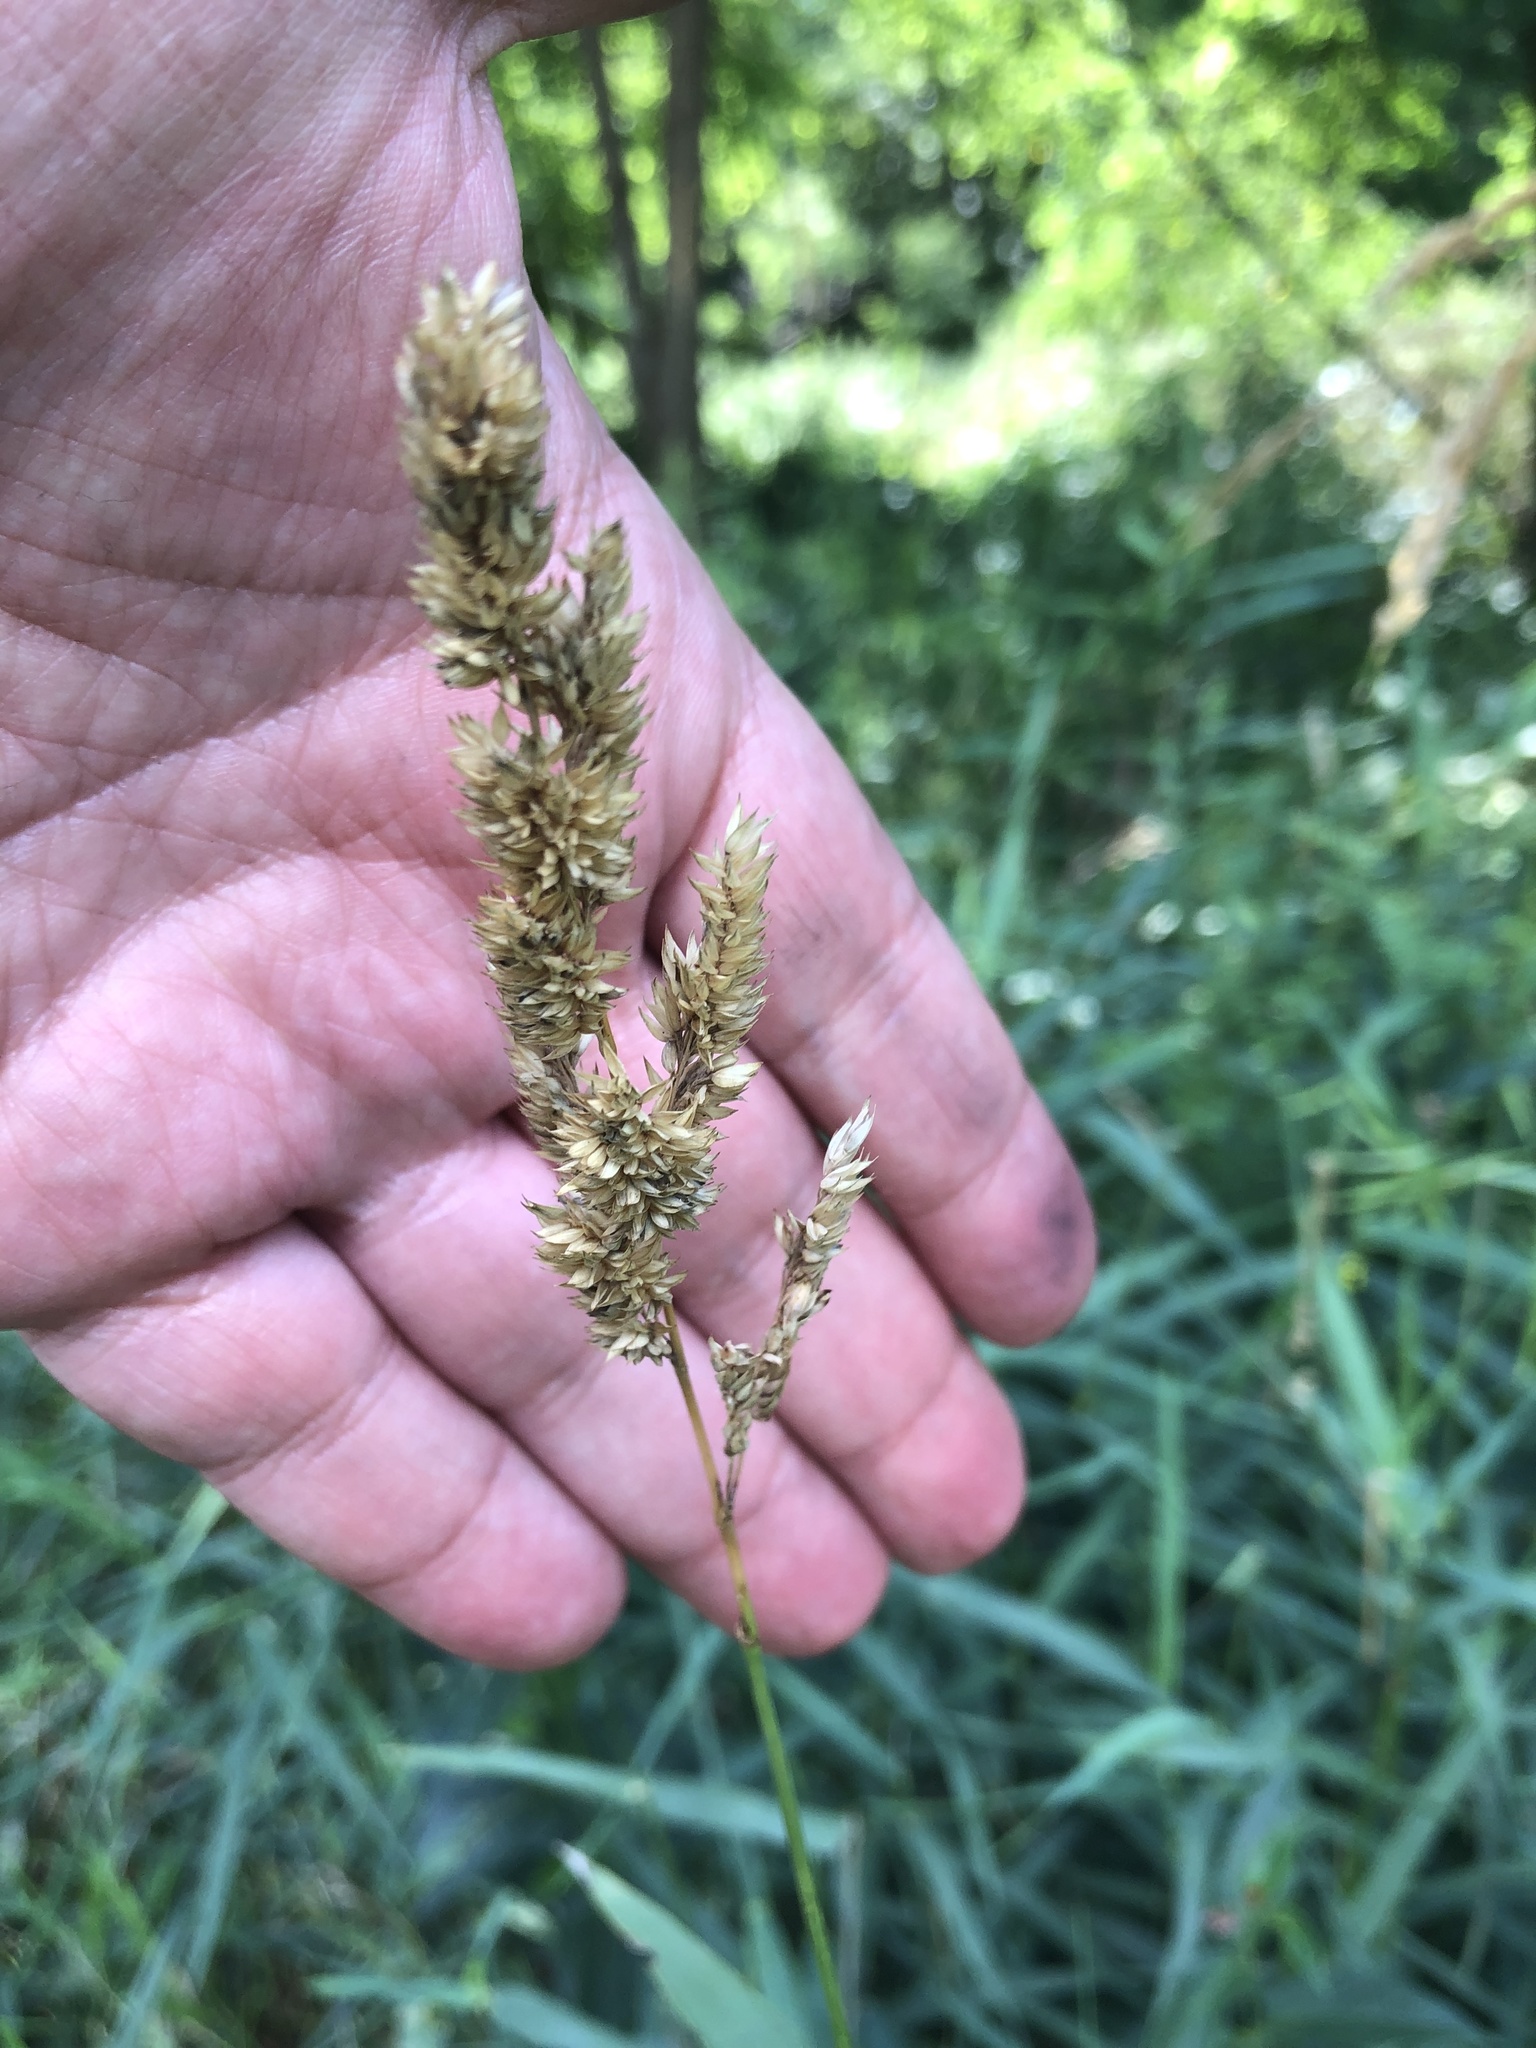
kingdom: Plantae
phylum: Tracheophyta
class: Liliopsida
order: Poales
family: Poaceae
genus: Phalaris
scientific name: Phalaris arundinacea
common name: Reed canary-grass
